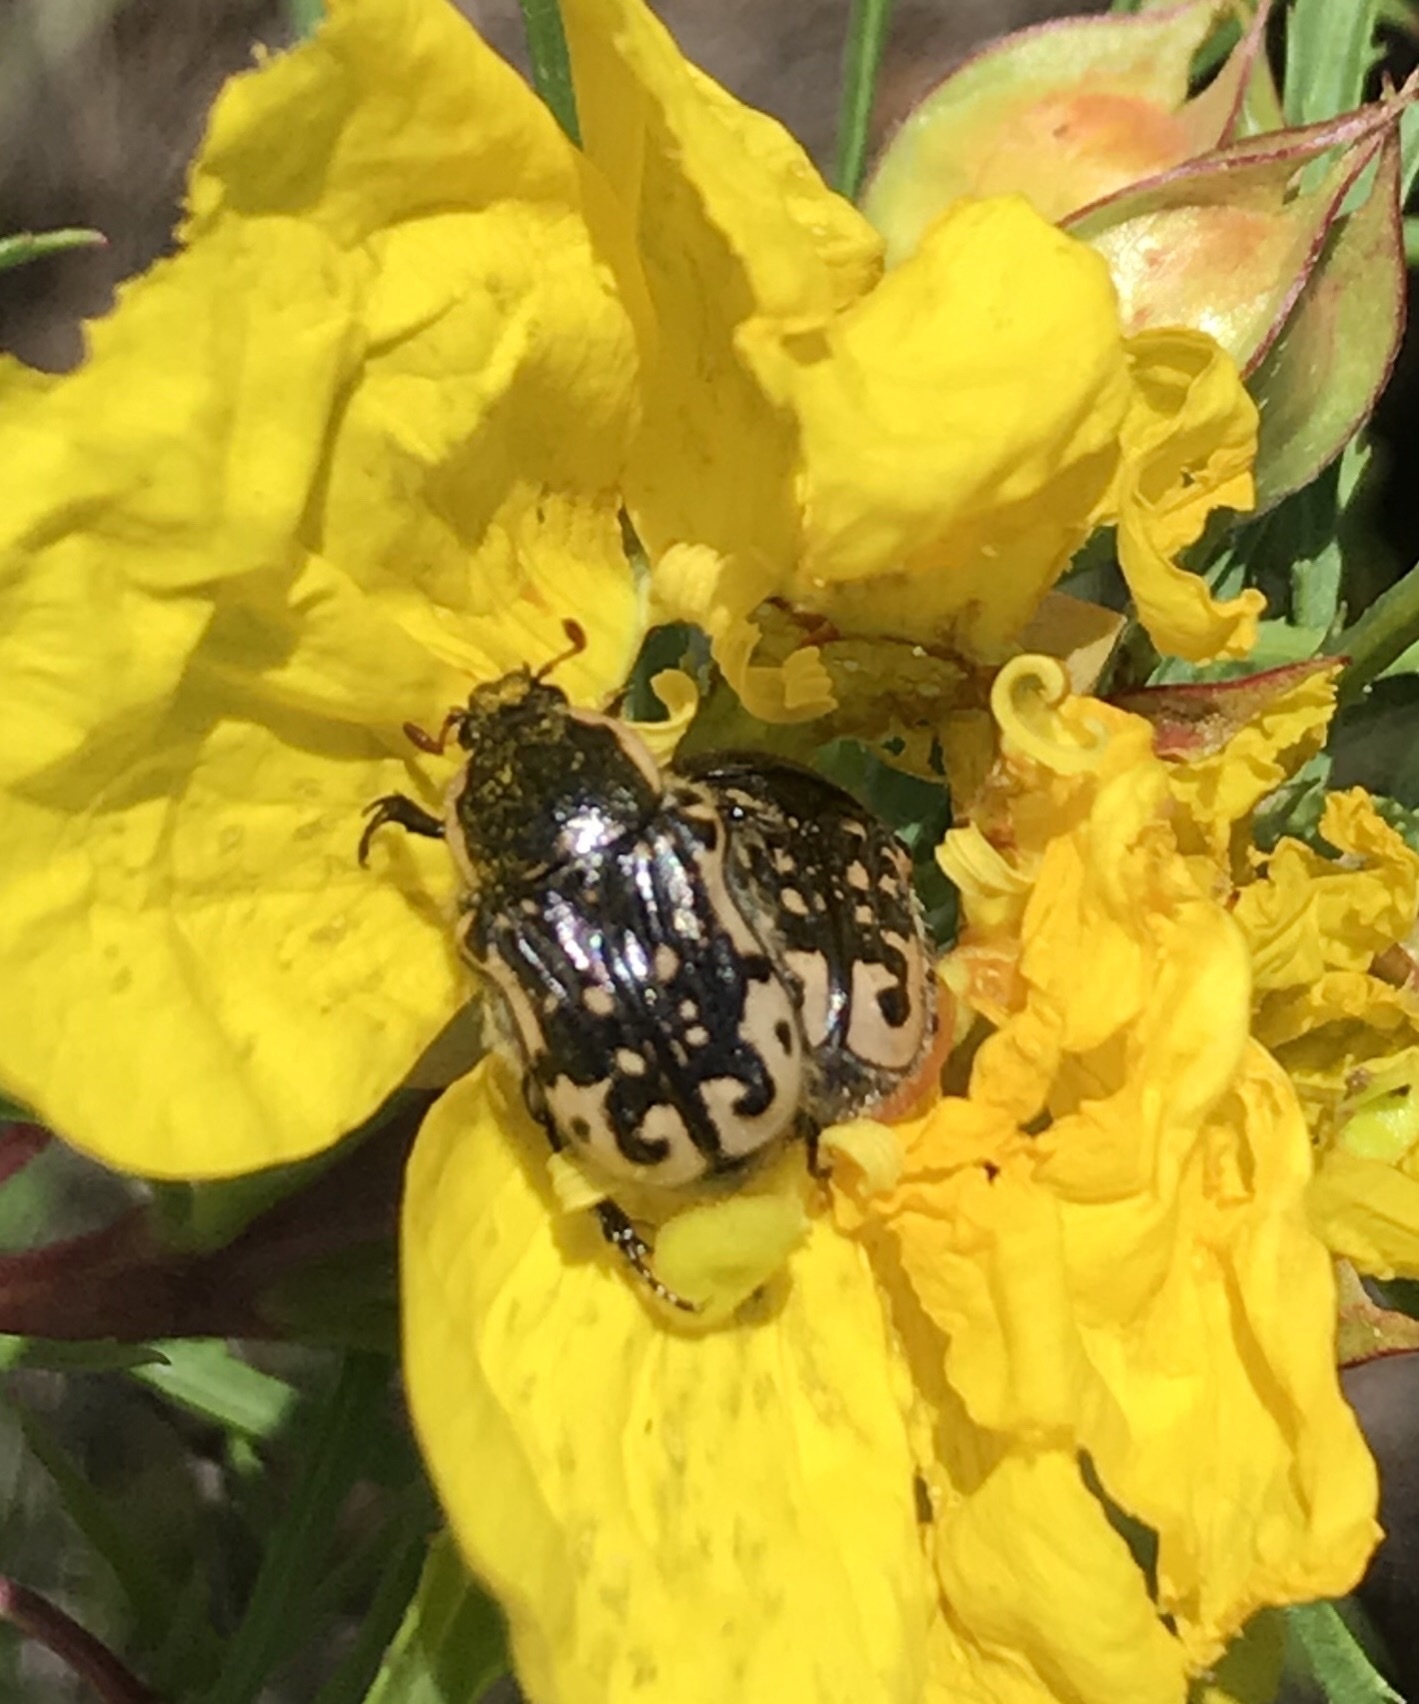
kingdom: Animalia
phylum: Arthropoda
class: Insecta
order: Coleoptera
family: Scarabaeidae
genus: Euphoria
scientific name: Euphoria kernii
